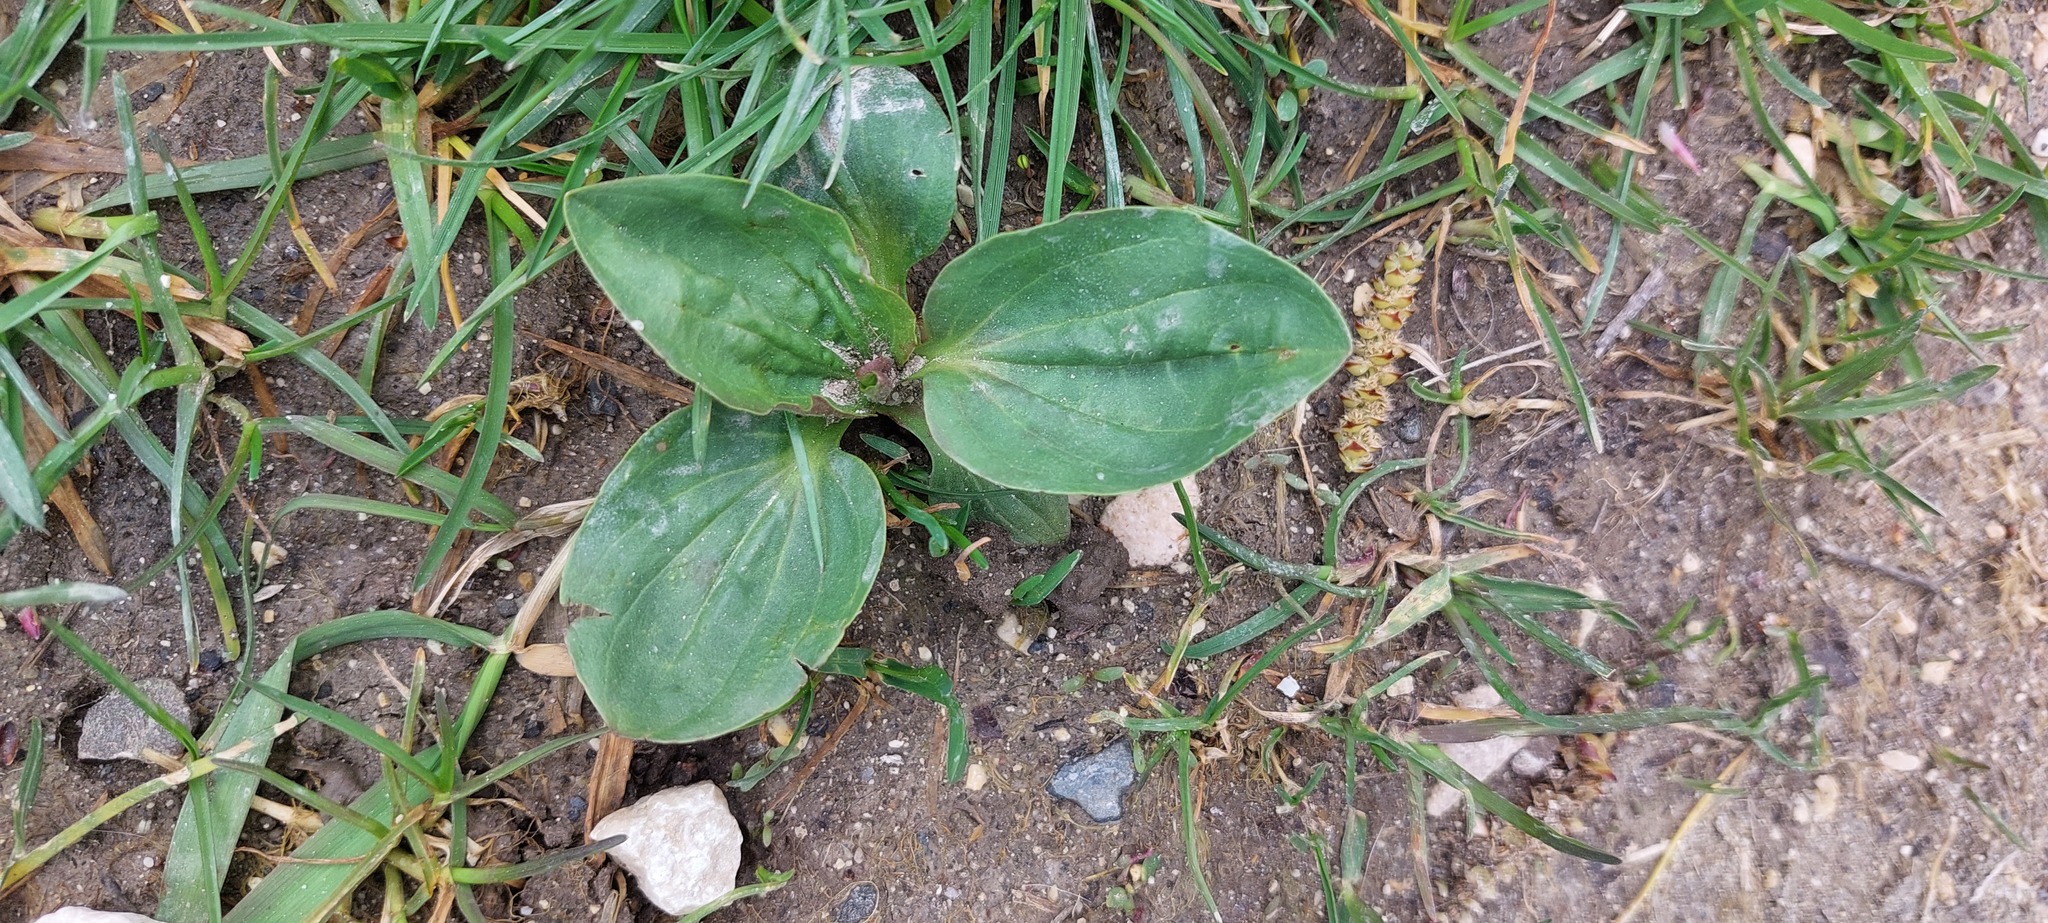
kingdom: Plantae
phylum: Tracheophyta
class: Magnoliopsida
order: Lamiales
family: Plantaginaceae
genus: Plantago
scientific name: Plantago major
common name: Common plantain
